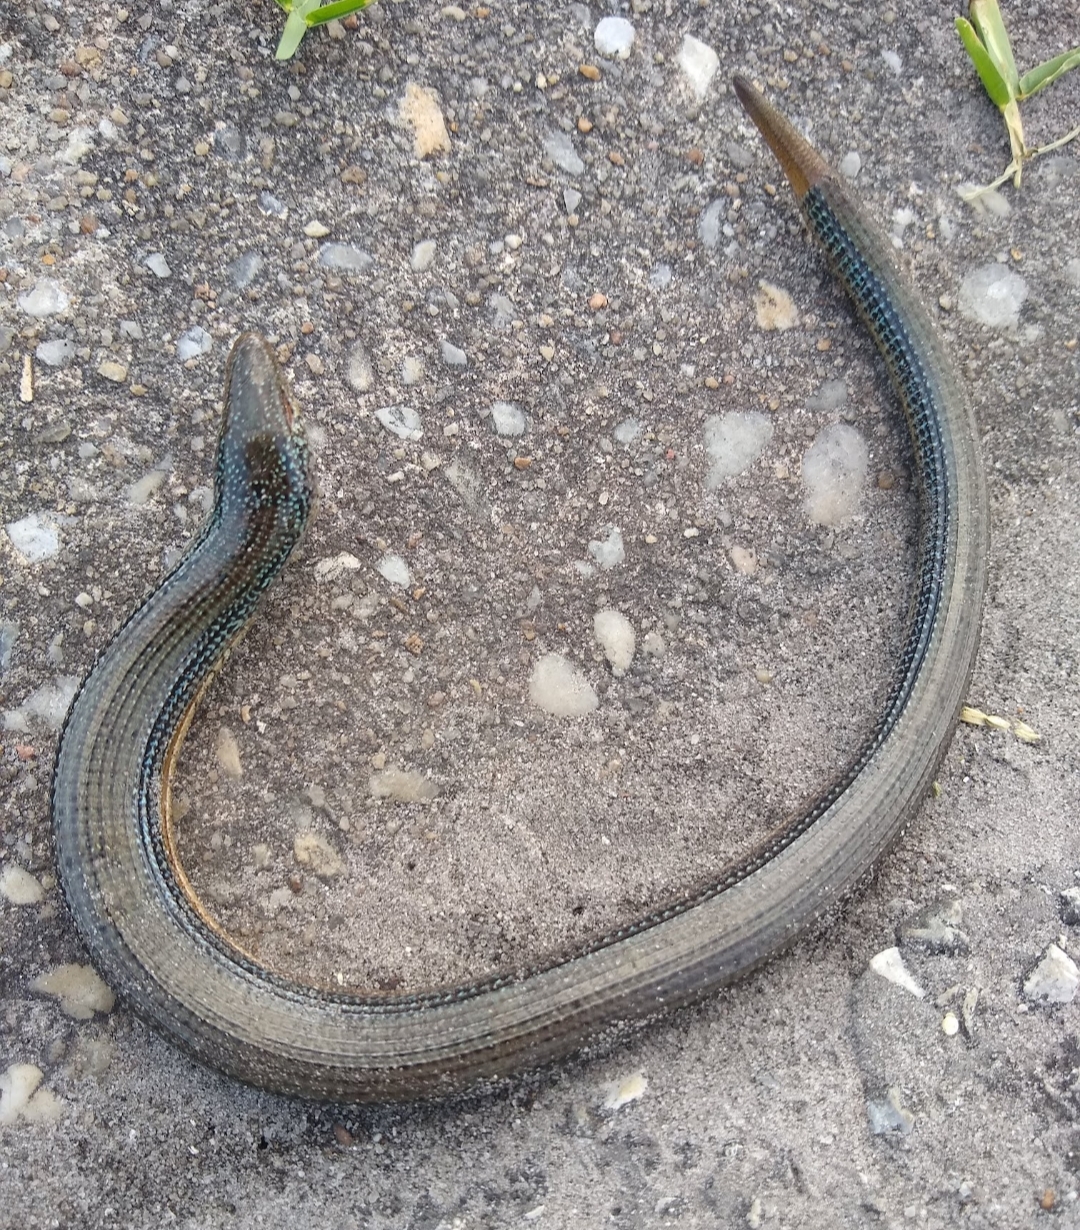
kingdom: Animalia
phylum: Chordata
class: Squamata
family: Anguidae
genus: Ophisaurus
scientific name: Ophisaurus ventralis
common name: Eastern glass lizard
